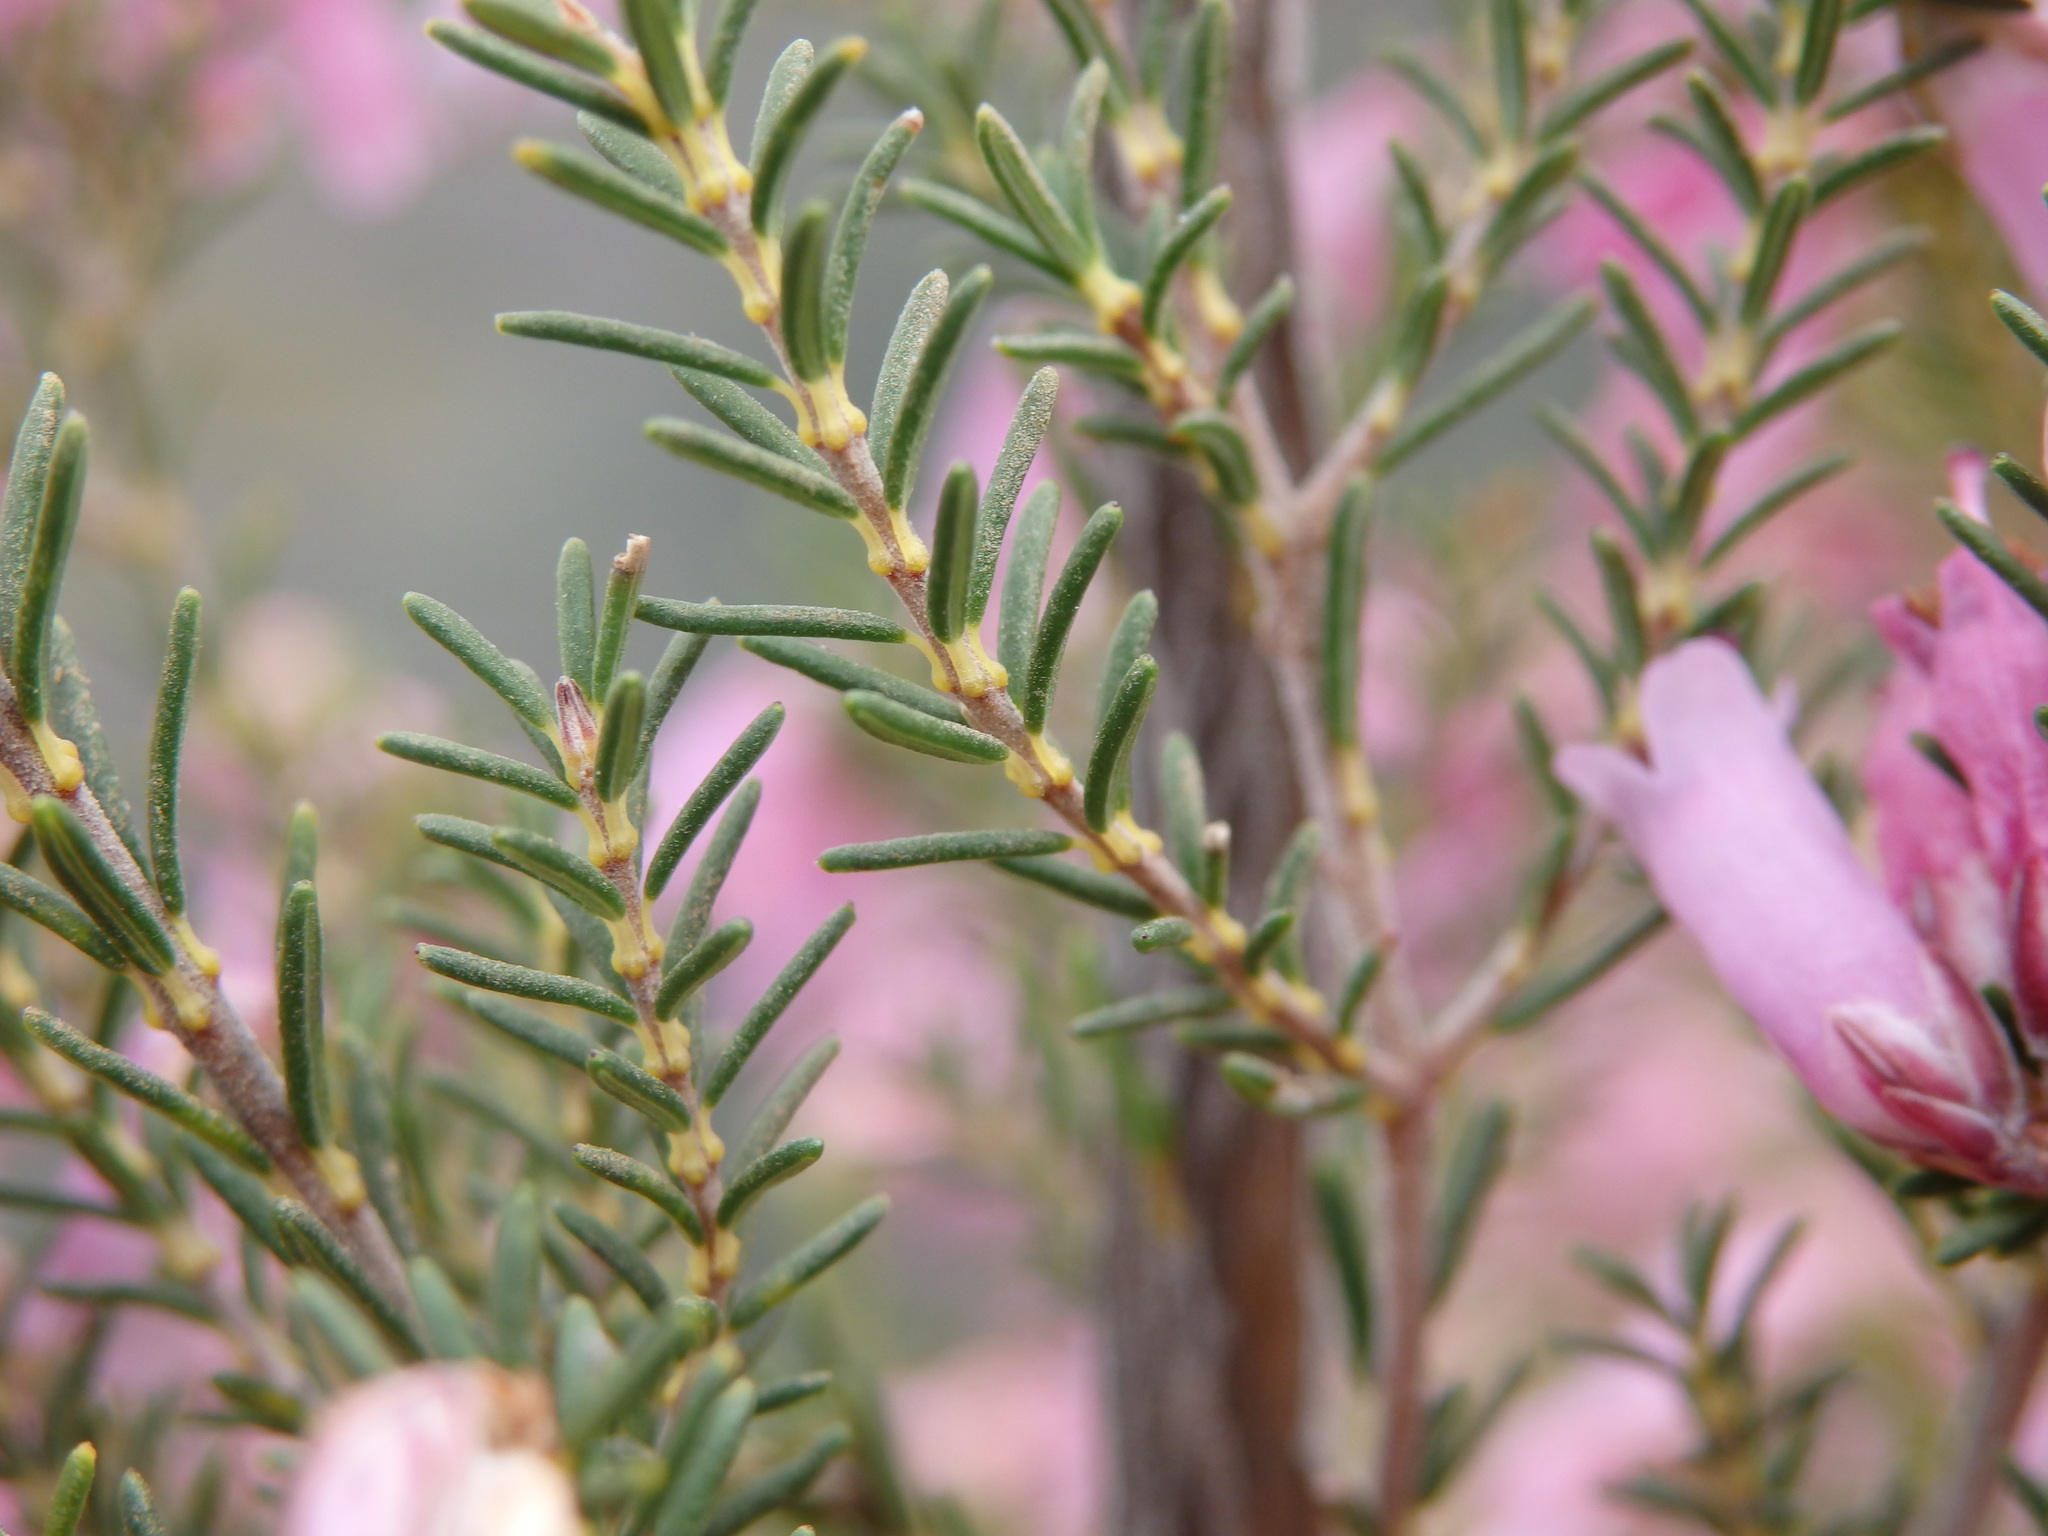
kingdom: Plantae
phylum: Tracheophyta
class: Magnoliopsida
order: Ericales
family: Ericaceae
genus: Erica
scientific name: Erica australis
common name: Spanish heath
